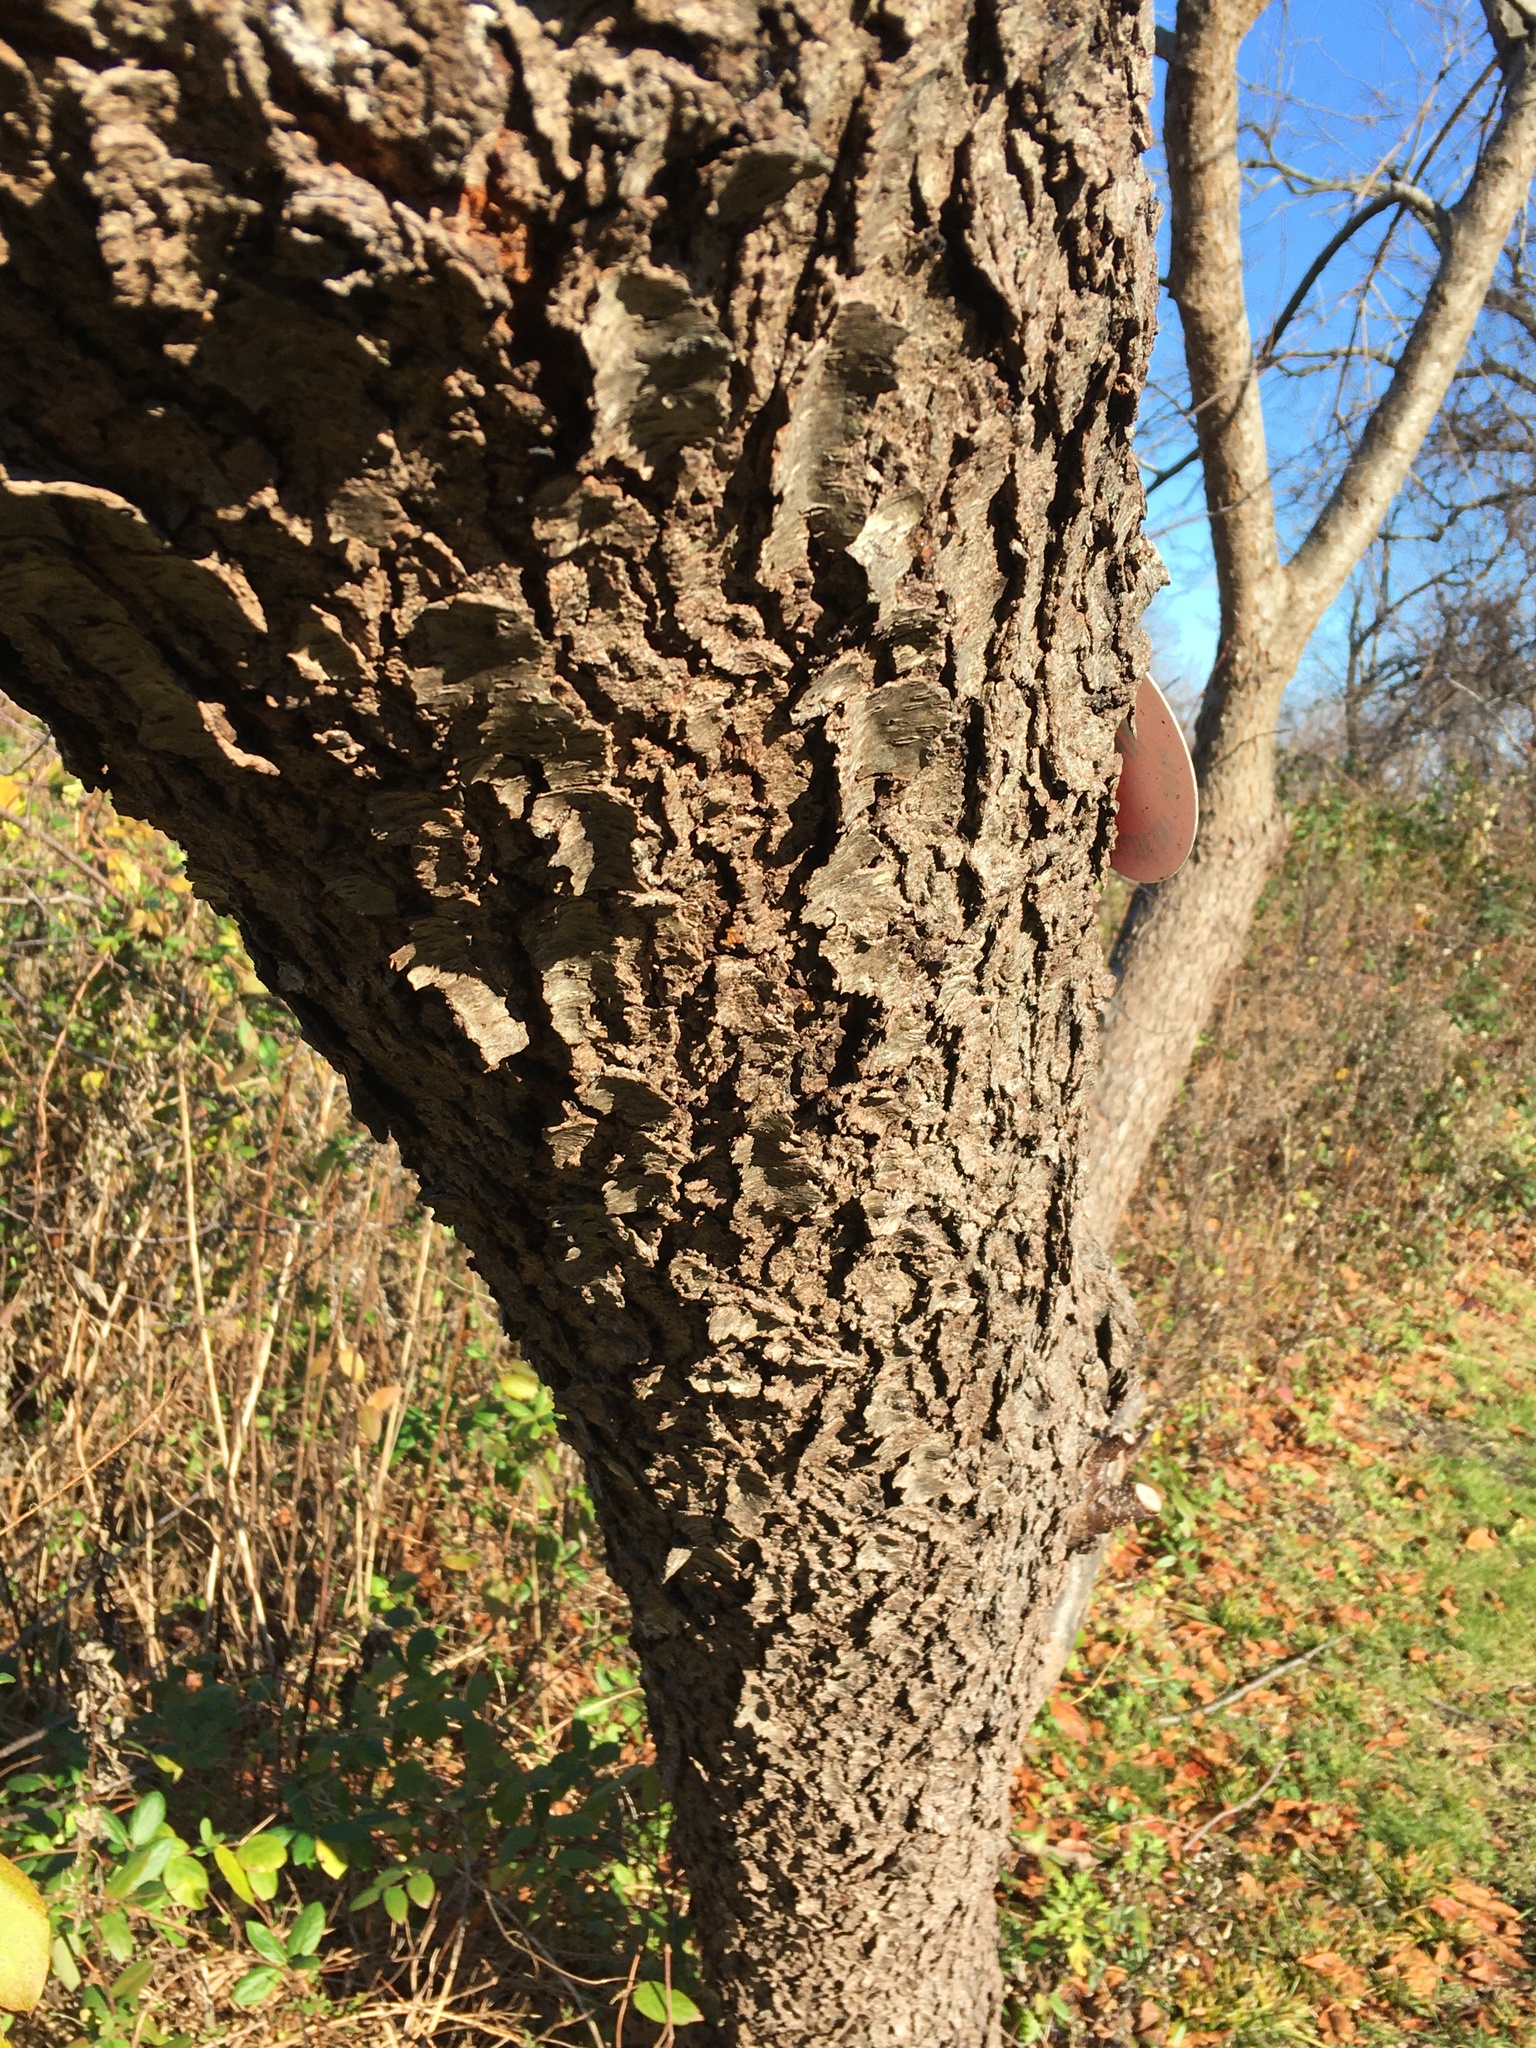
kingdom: Plantae
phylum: Tracheophyta
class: Magnoliopsida
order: Rosales
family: Rosaceae
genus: Prunus
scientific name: Prunus serotina
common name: Black cherry
